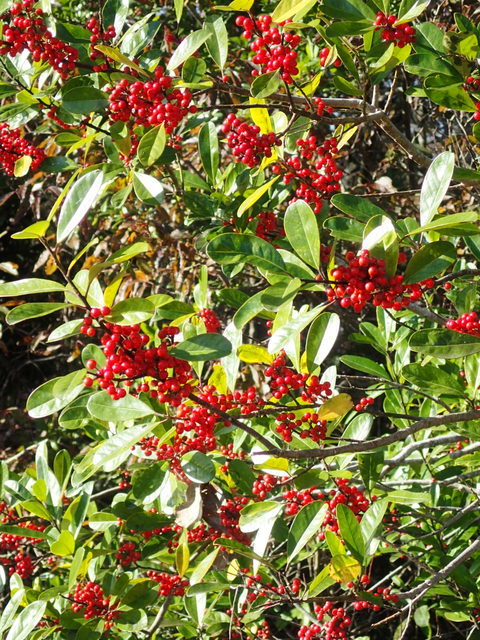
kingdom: Plantae
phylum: Tracheophyta
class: Magnoliopsida
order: Aquifoliales
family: Aquifoliaceae
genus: Ilex
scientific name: Ilex cassine
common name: Dahoon
